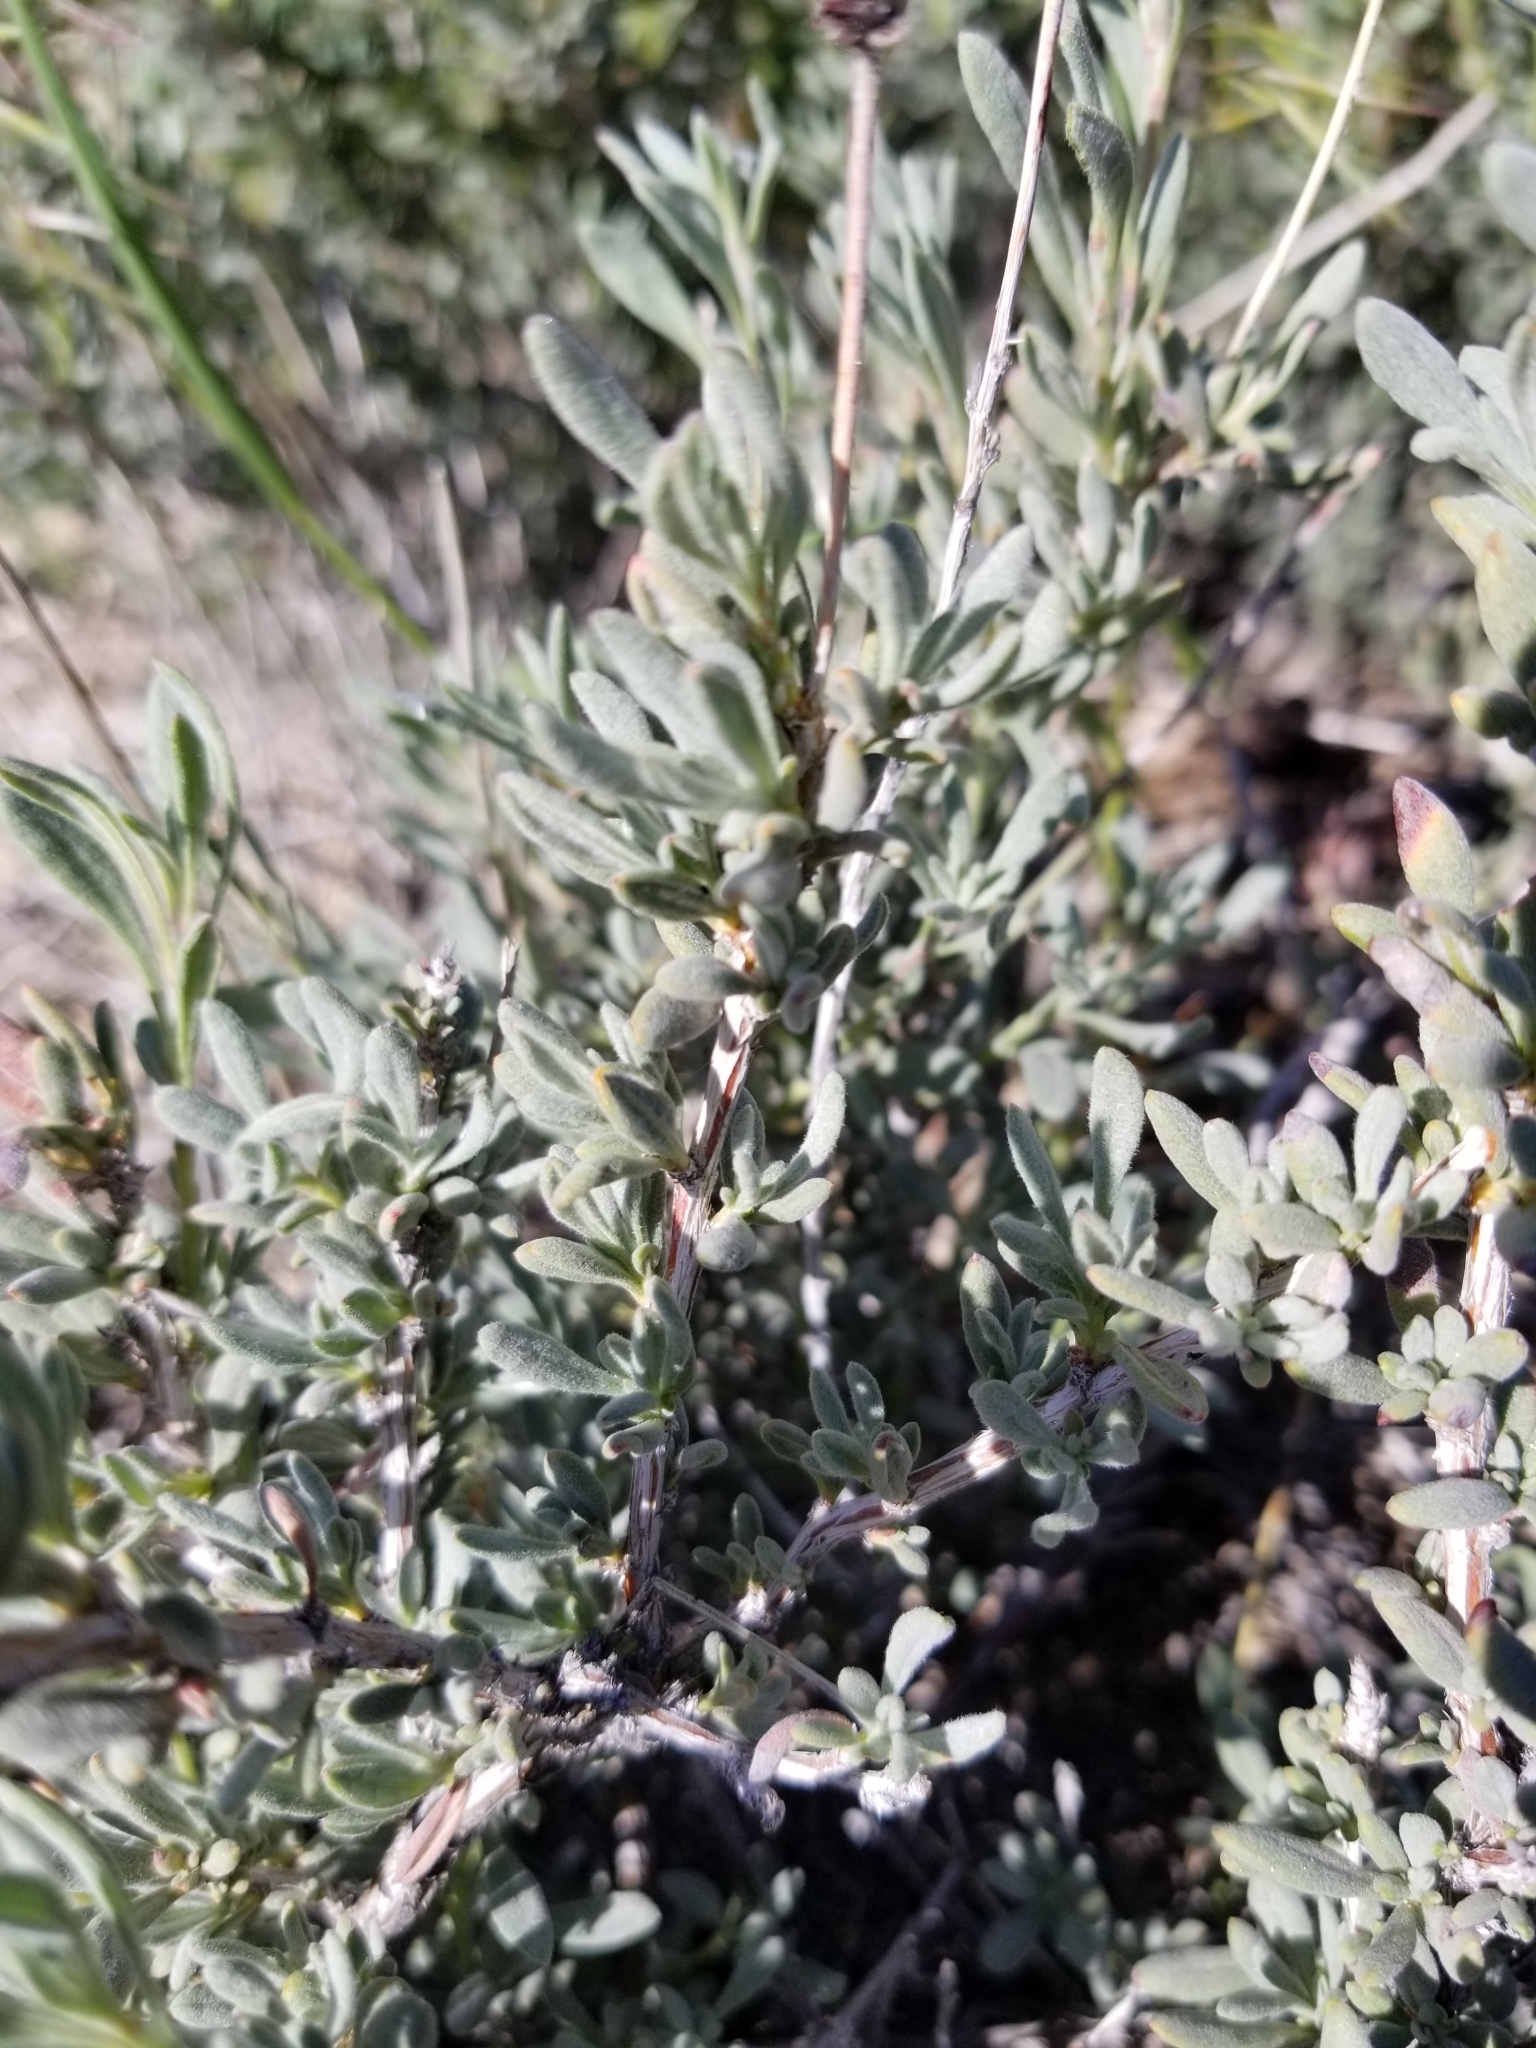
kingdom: Plantae
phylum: Tracheophyta
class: Magnoliopsida
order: Caryophyllales
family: Polygonaceae
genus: Eriogonum
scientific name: Eriogonum fasciculatum
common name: California wild buckwheat
